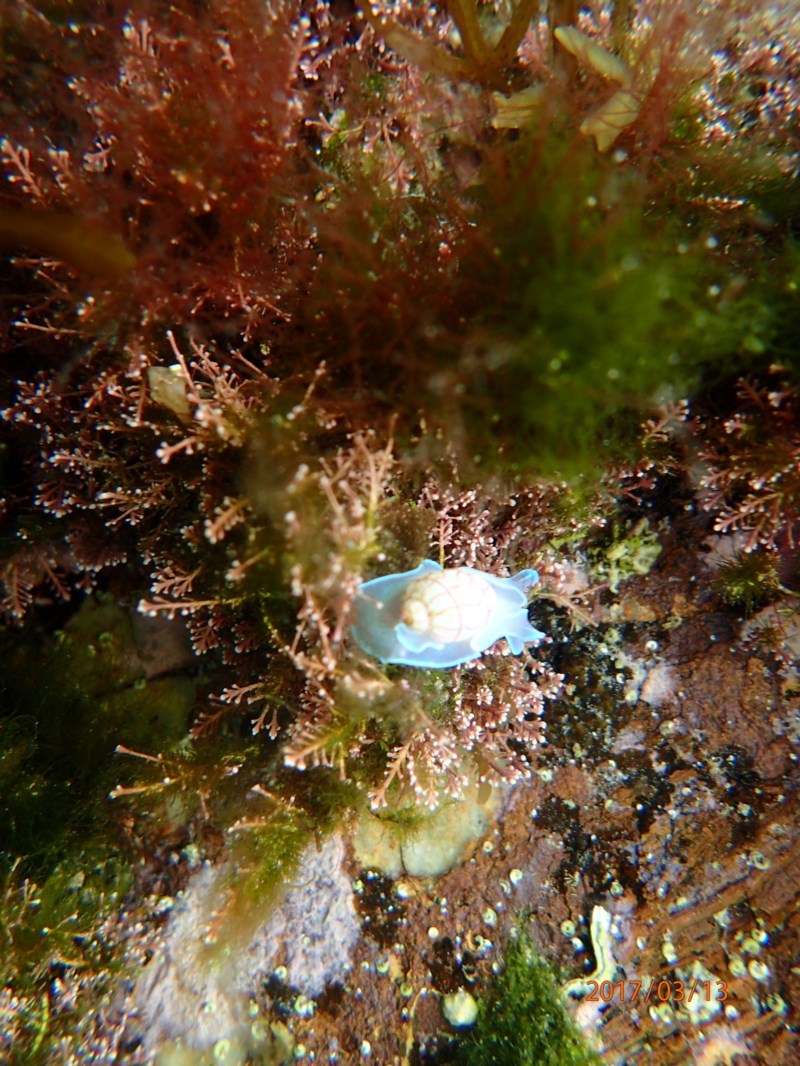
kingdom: Animalia
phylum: Mollusca
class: Gastropoda
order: Cephalaspidea
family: Aplustridae
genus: Bullina
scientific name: Bullina lineata
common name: Lined bubble snail
